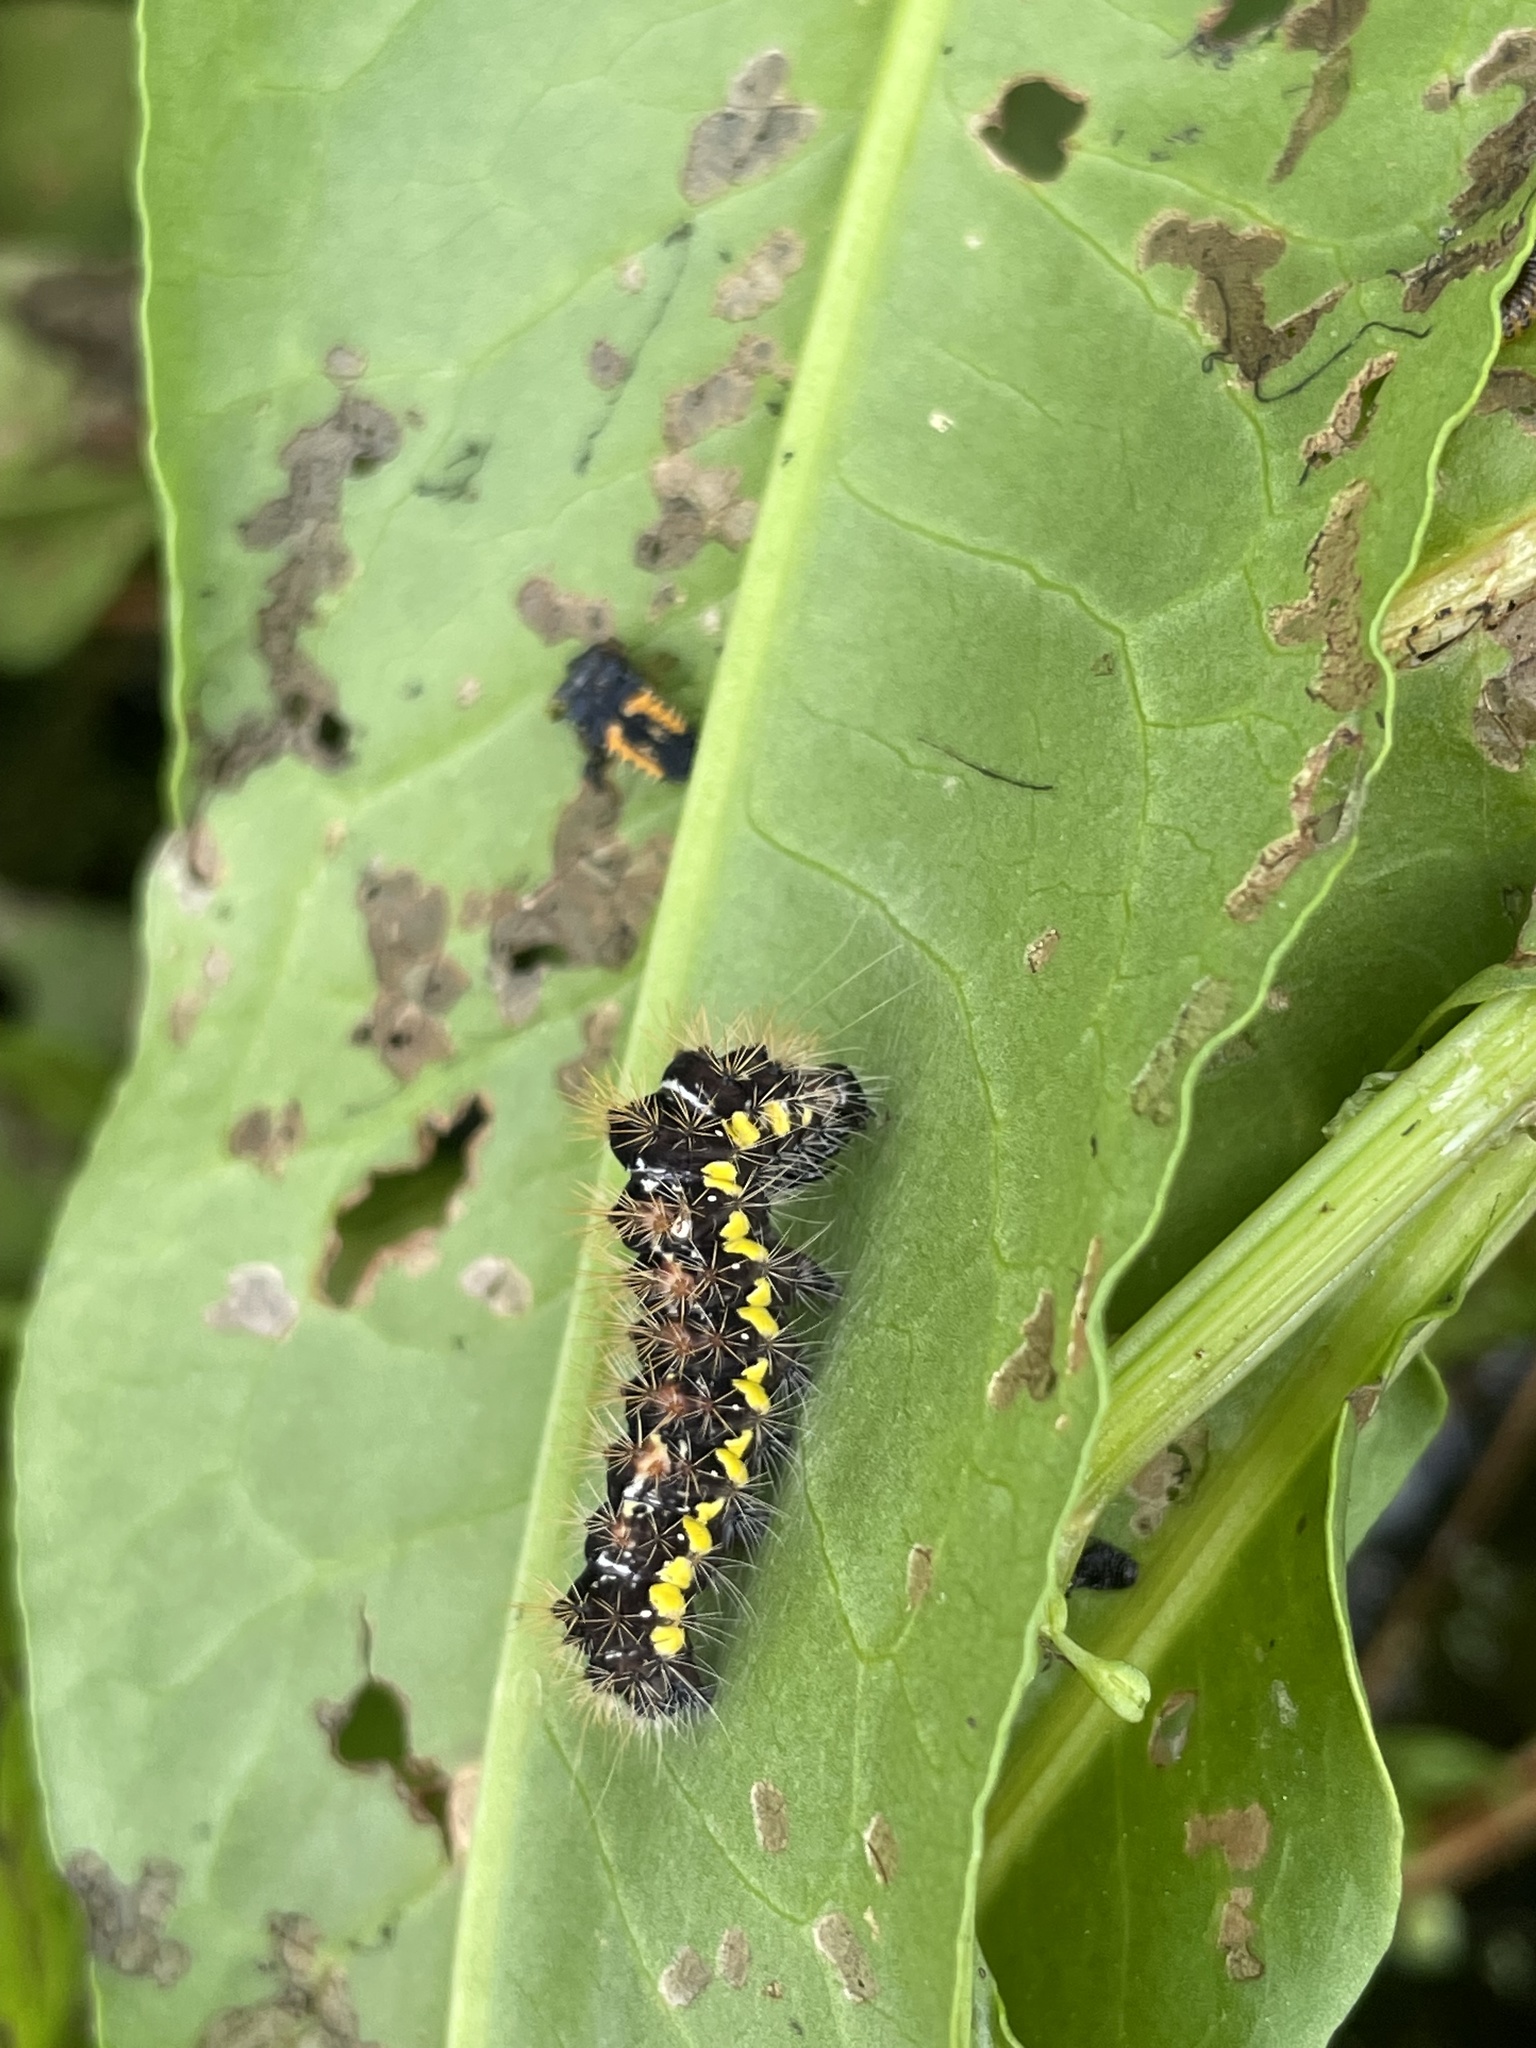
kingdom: Animalia
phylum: Arthropoda
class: Insecta
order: Lepidoptera
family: Noctuidae
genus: Acronicta
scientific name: Acronicta oblinita
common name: Smeared dagger
